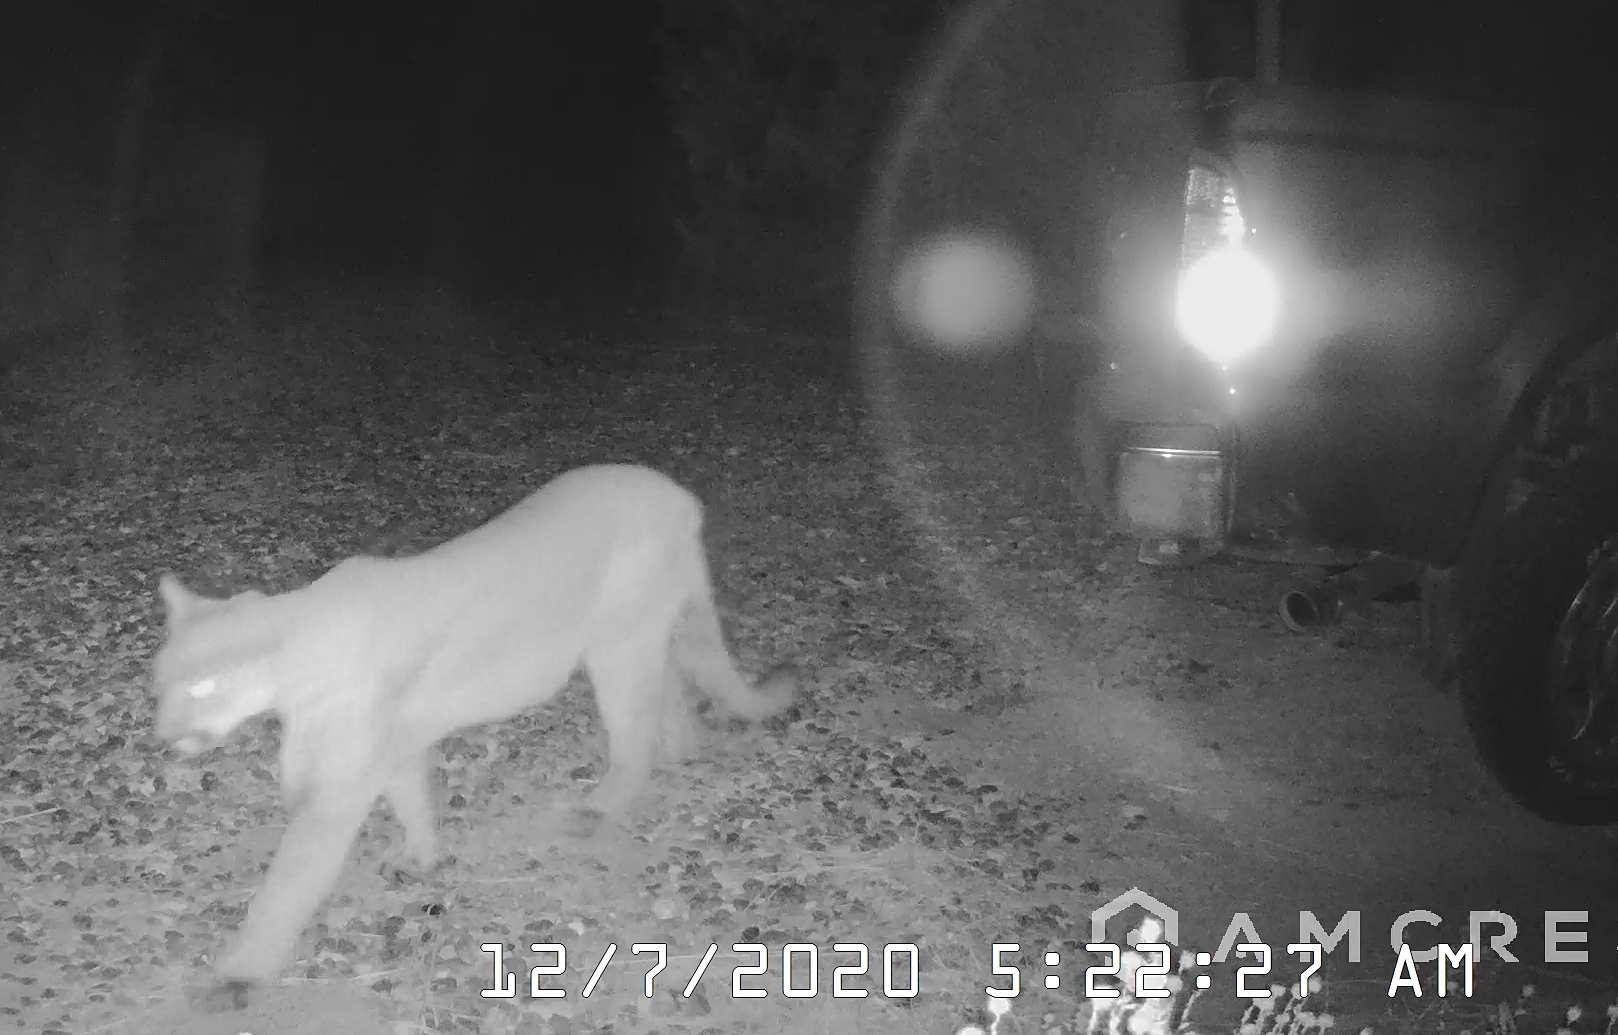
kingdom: Animalia
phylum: Chordata
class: Mammalia
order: Carnivora
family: Felidae
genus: Puma
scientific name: Puma concolor
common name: Puma
